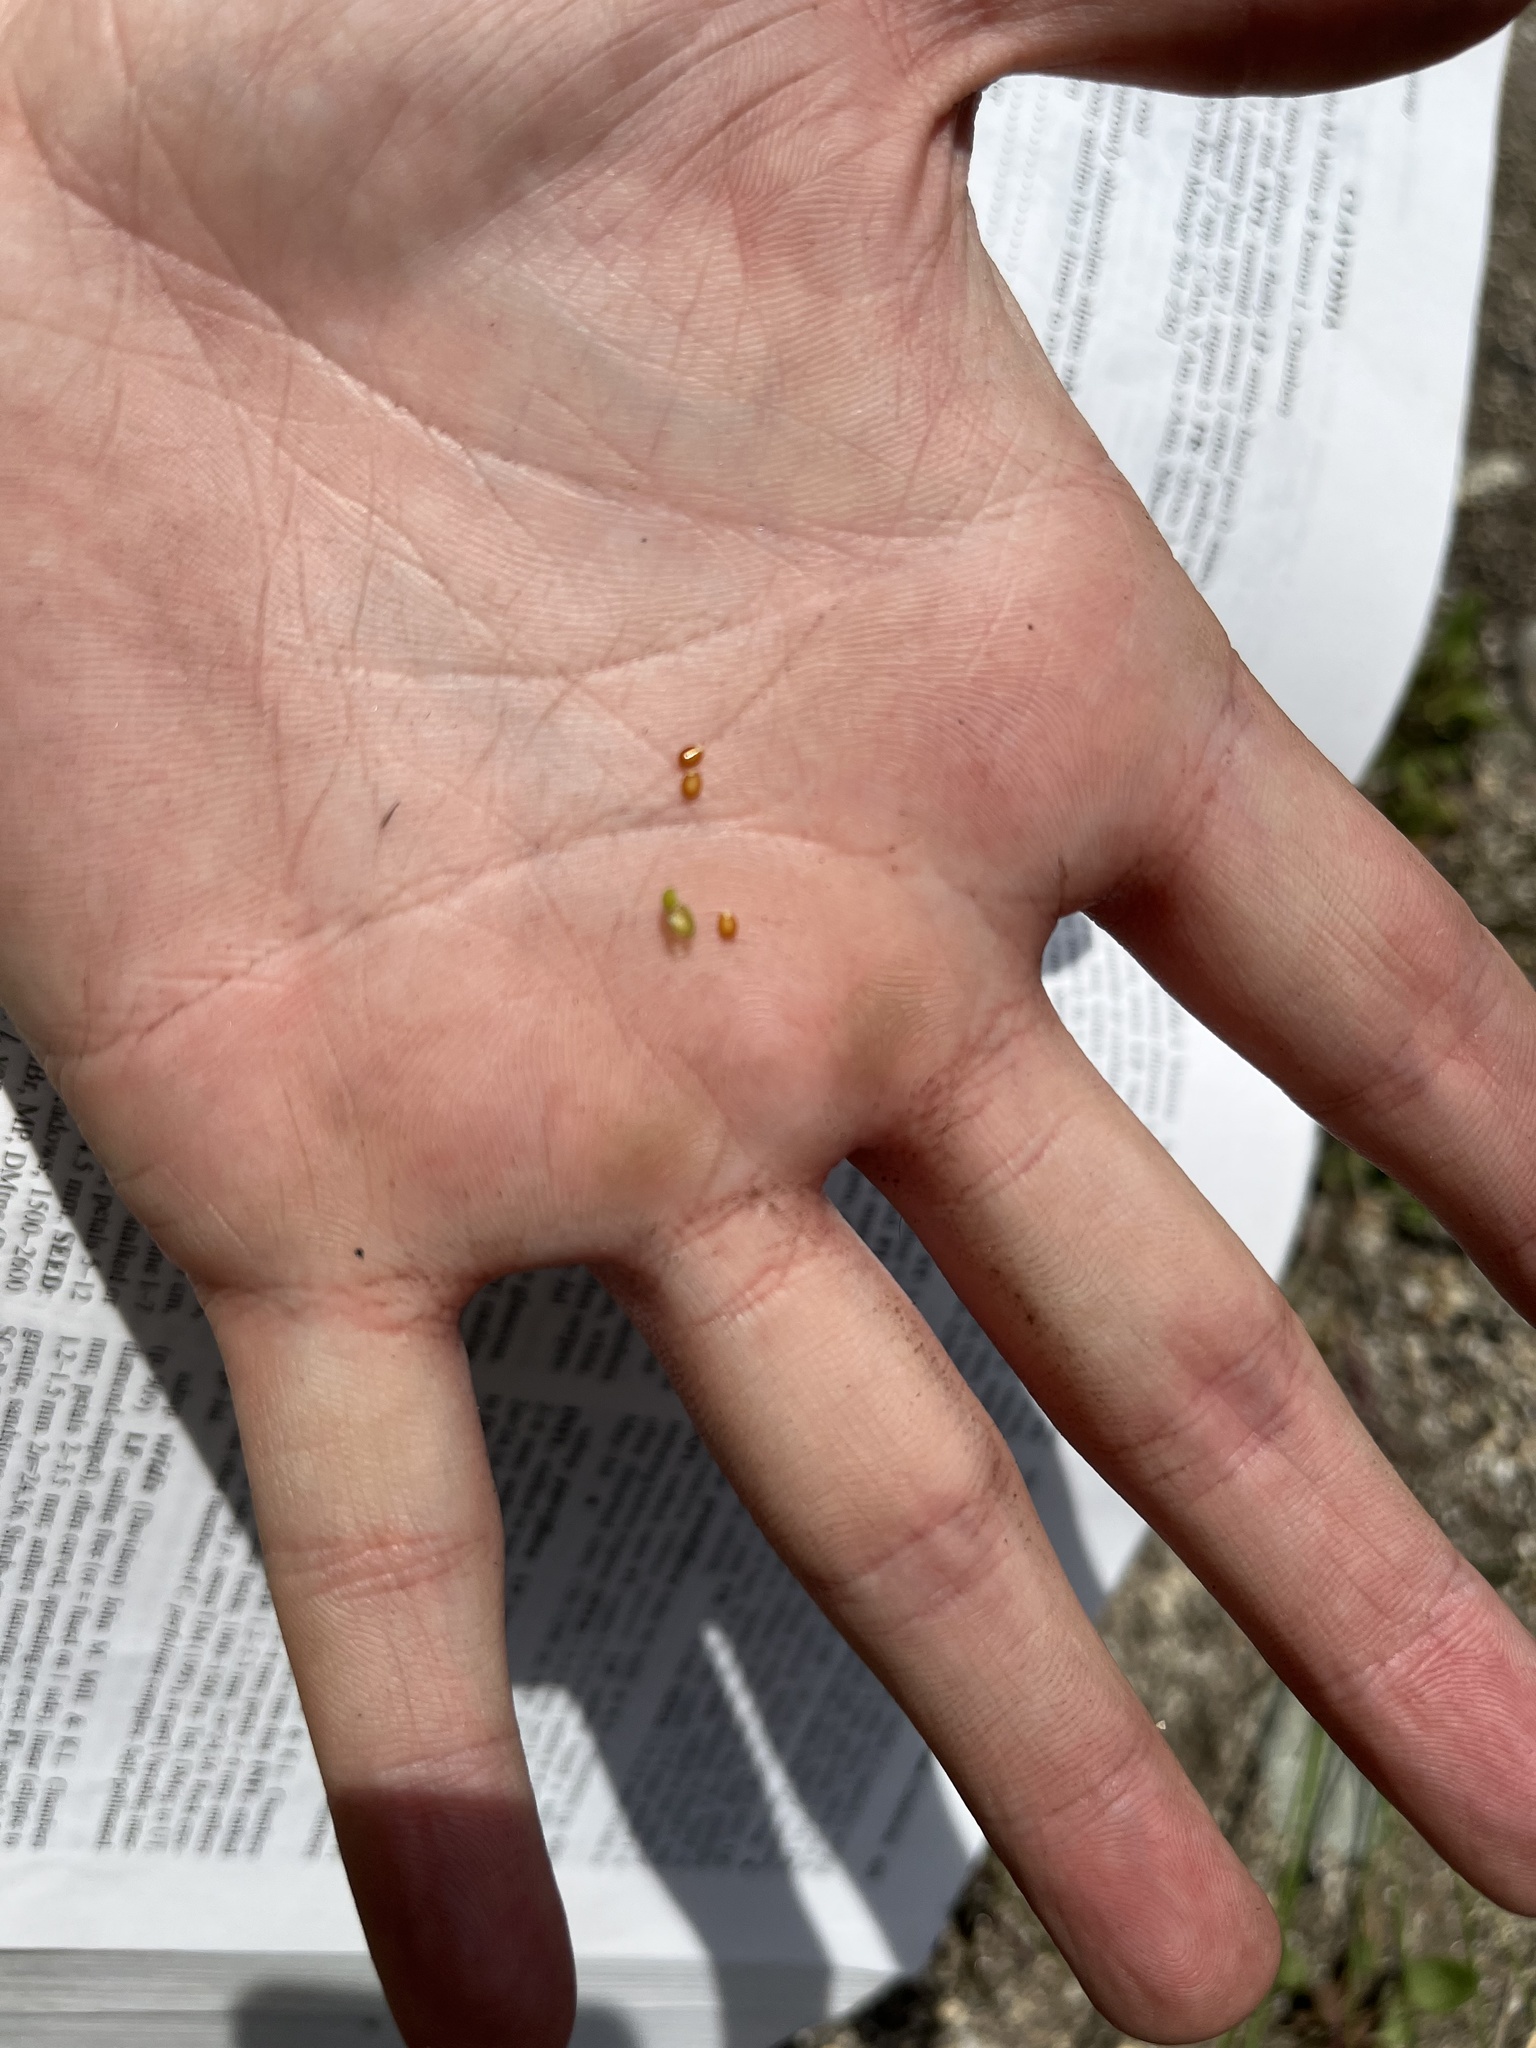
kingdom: Plantae
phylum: Tracheophyta
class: Magnoliopsida
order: Caryophyllales
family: Montiaceae
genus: Claytonia
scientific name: Claytonia parviflora
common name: Indian-lettuce
